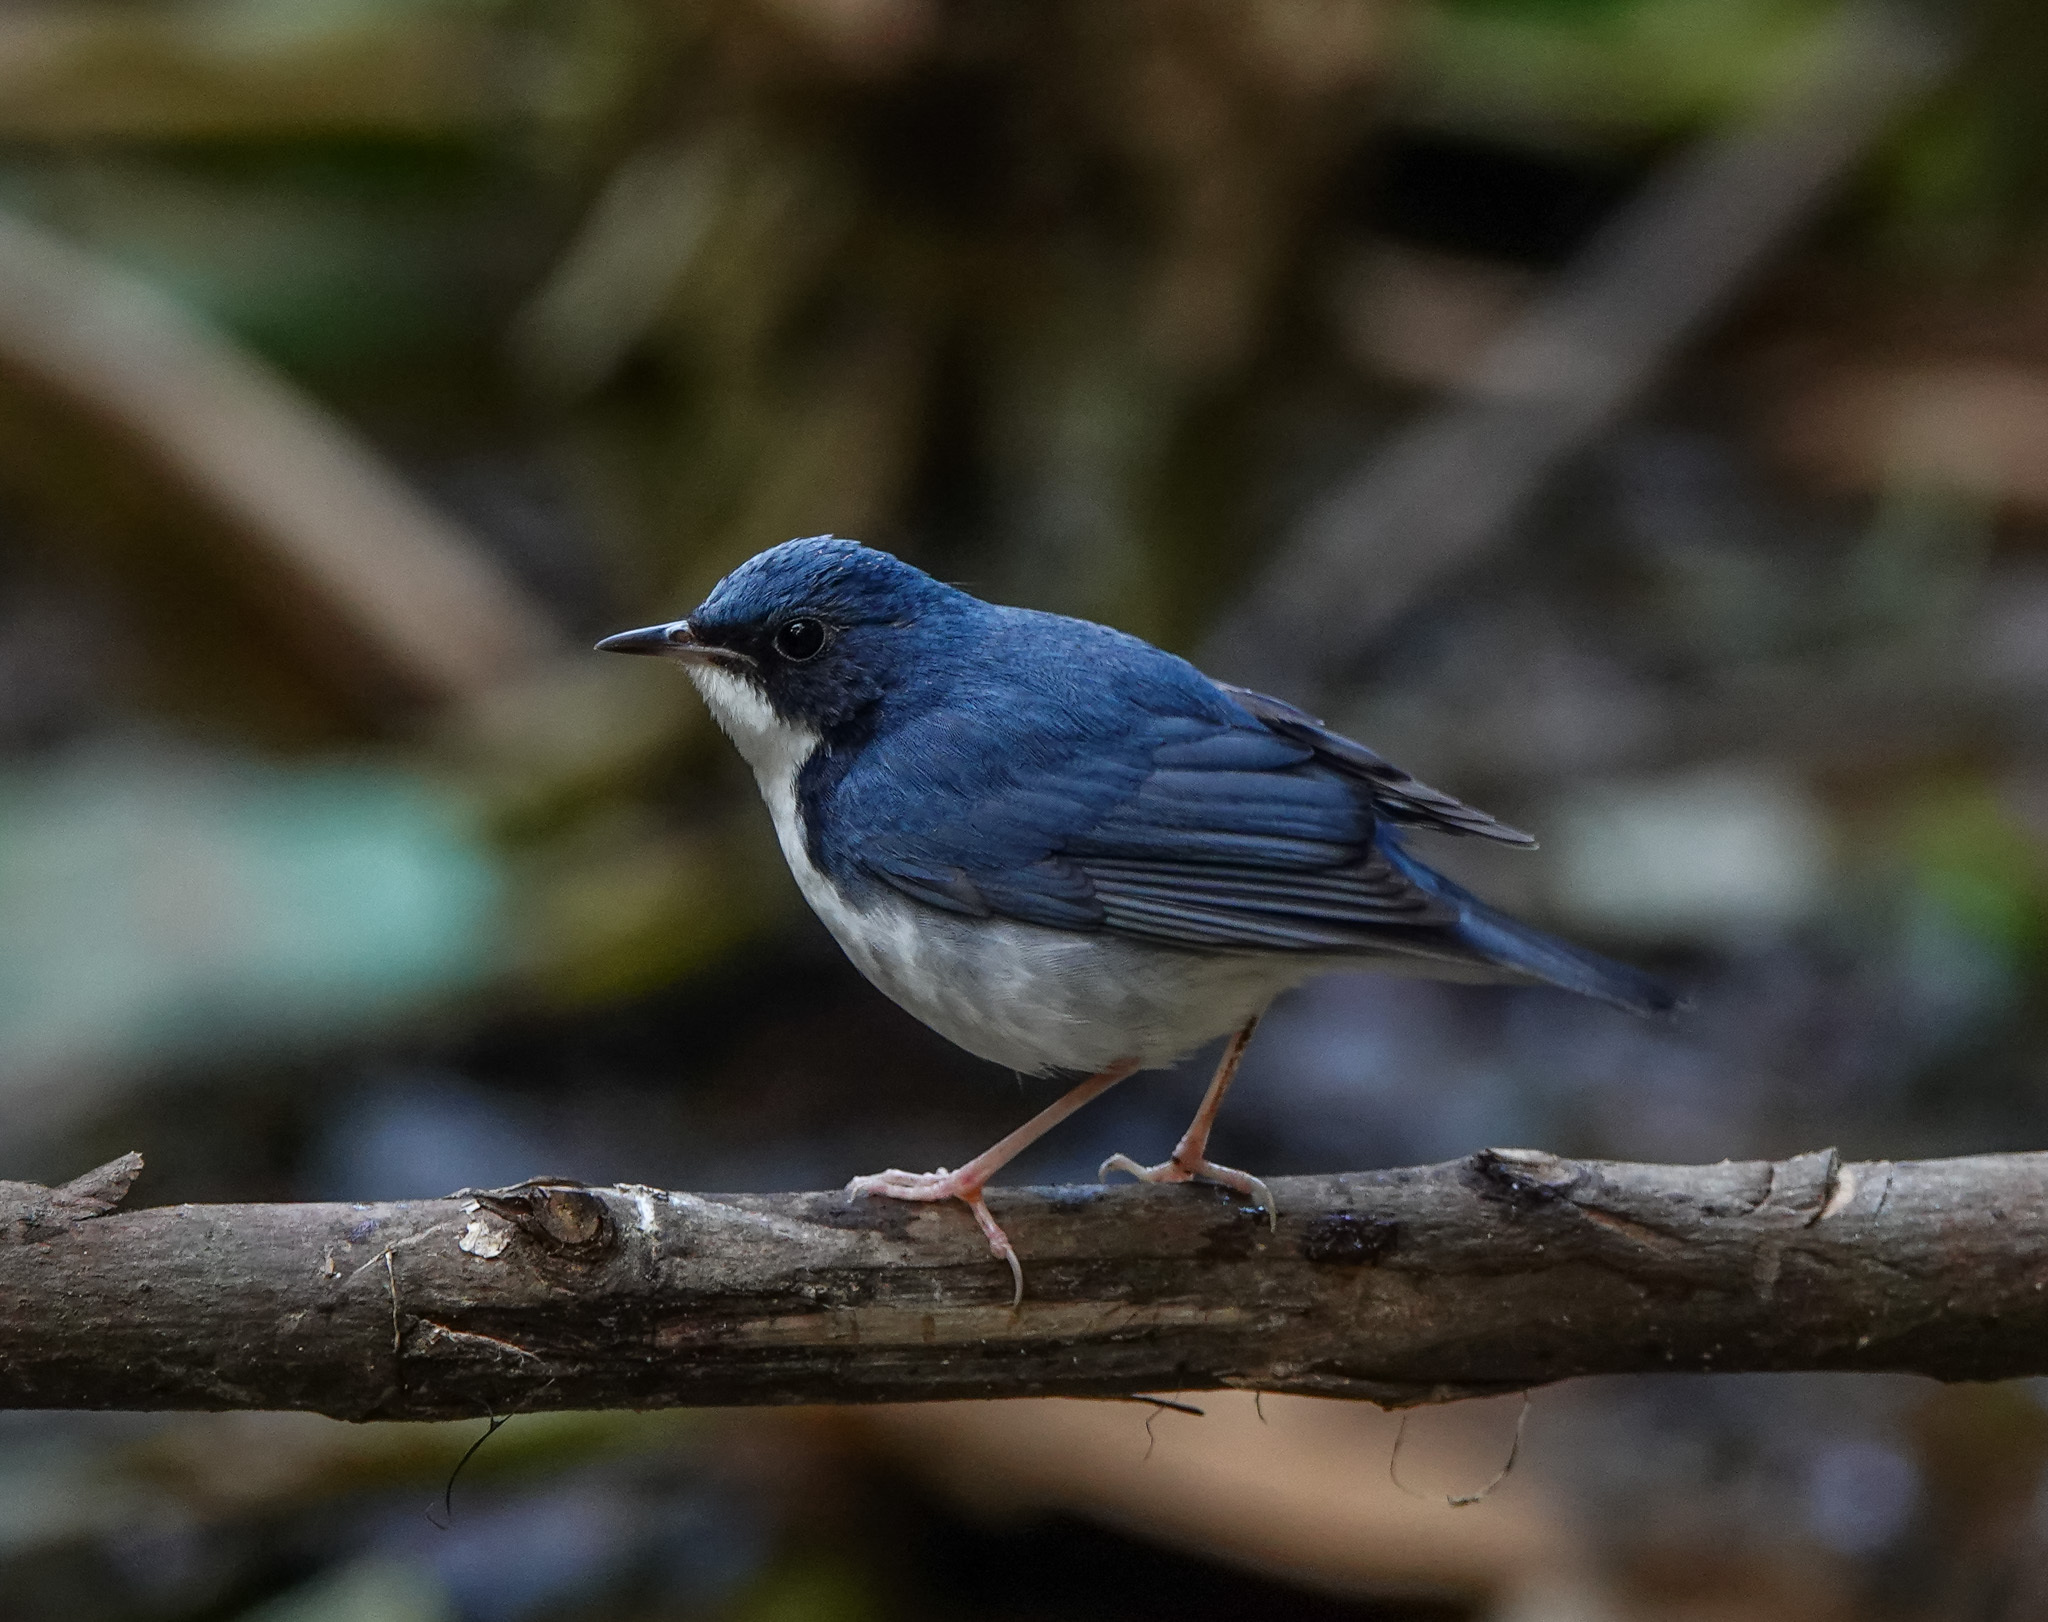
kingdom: Animalia
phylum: Chordata
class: Aves
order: Passeriformes
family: Muscicapidae
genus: Luscinia
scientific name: Luscinia cyane
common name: Siberian blue robin
